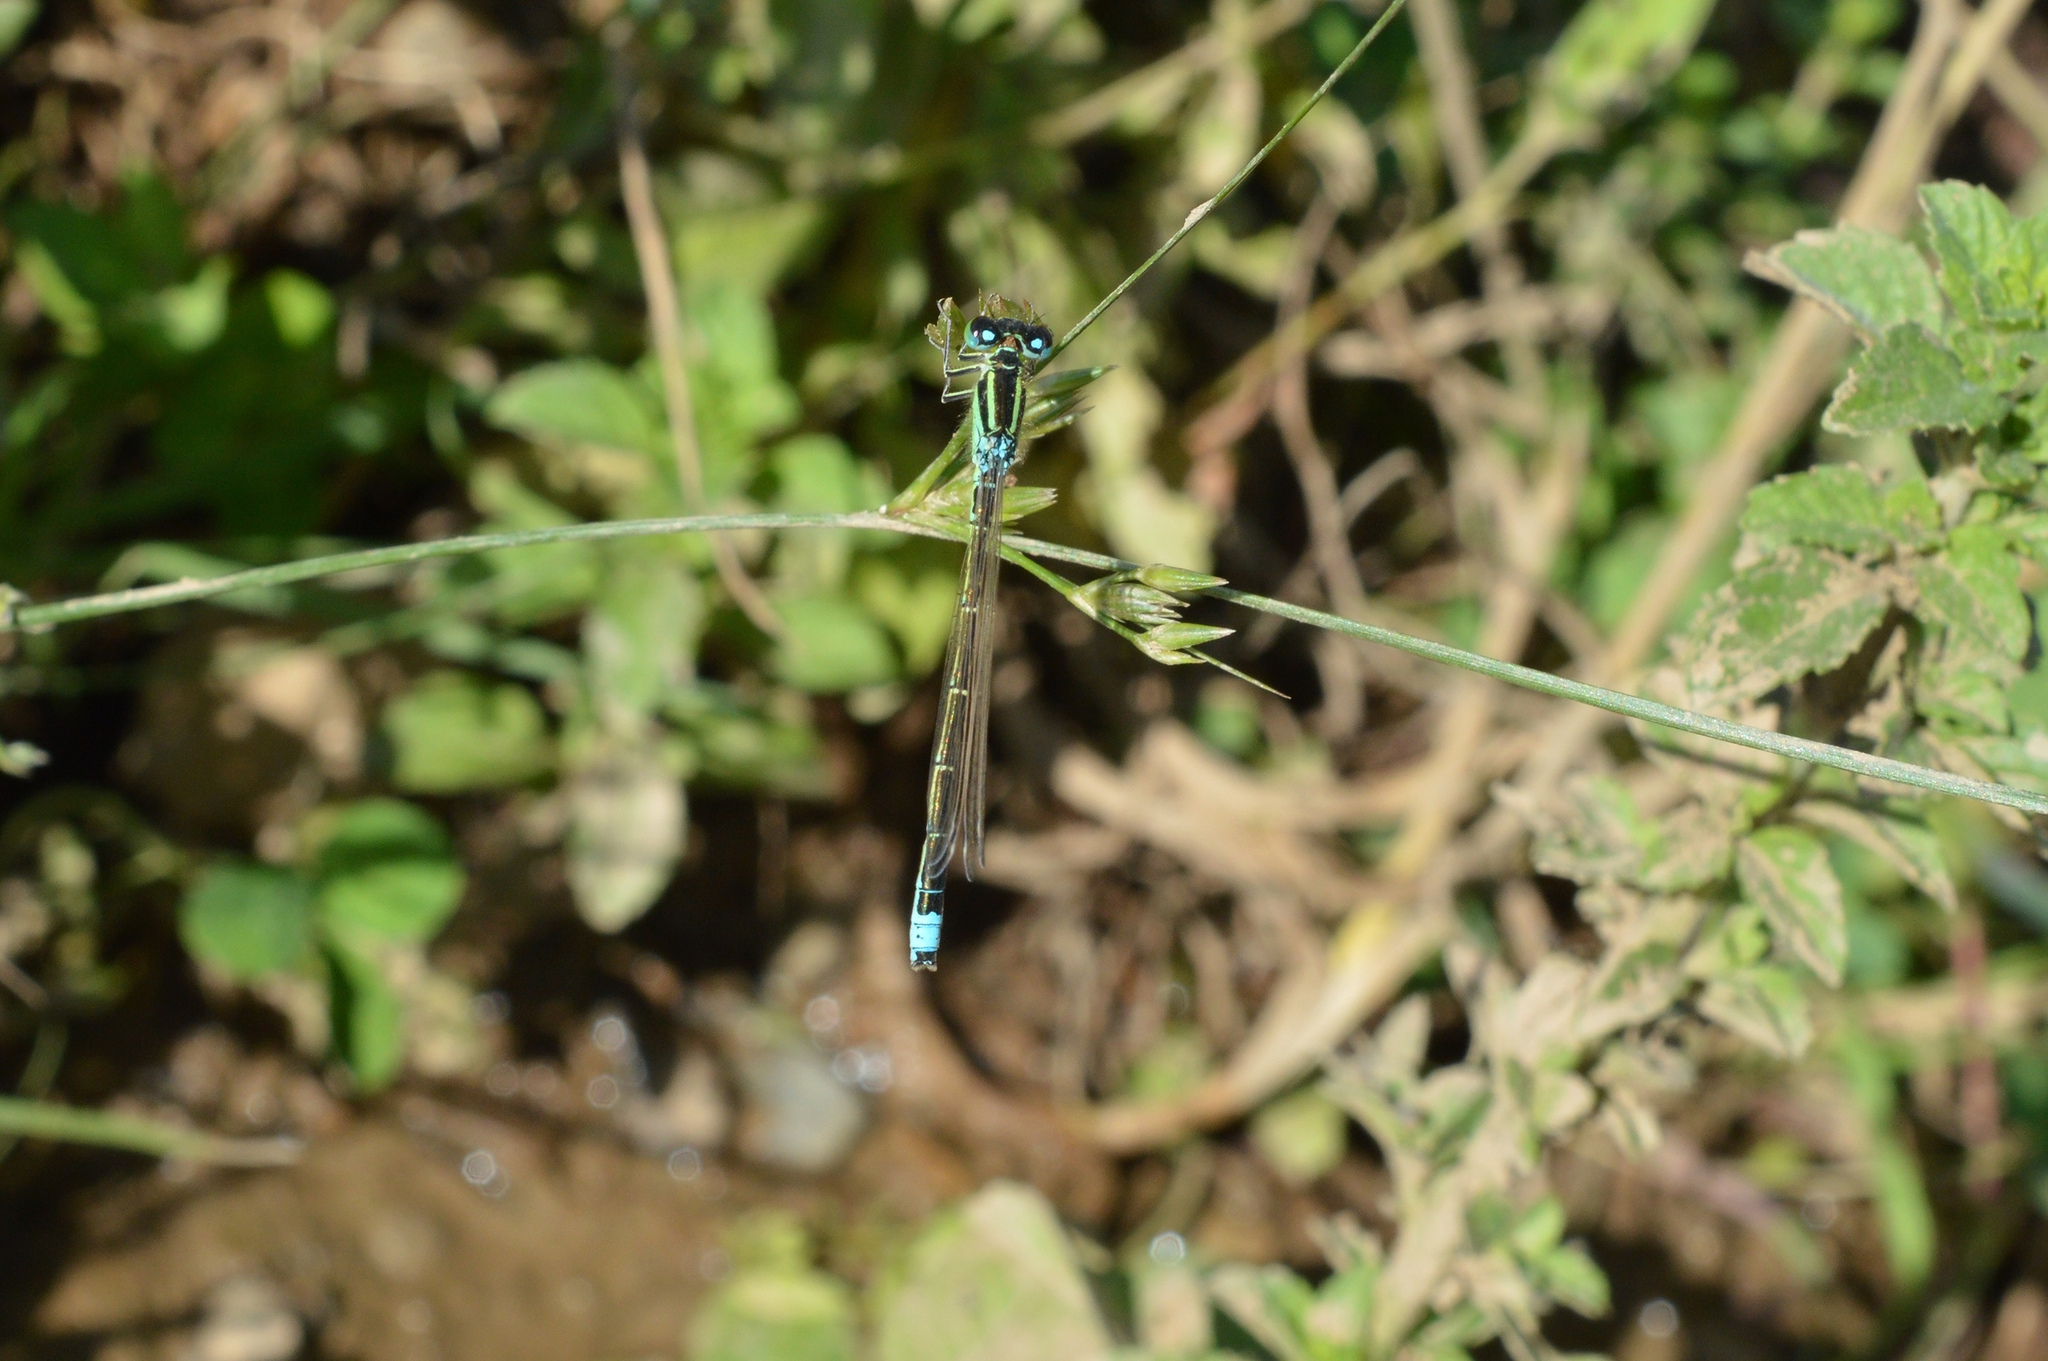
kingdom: Animalia
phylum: Arthropoda
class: Insecta
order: Odonata
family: Coenagrionidae
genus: Ischnura
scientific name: Ischnura pumilio
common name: Scarce blue-tailed damselfly
